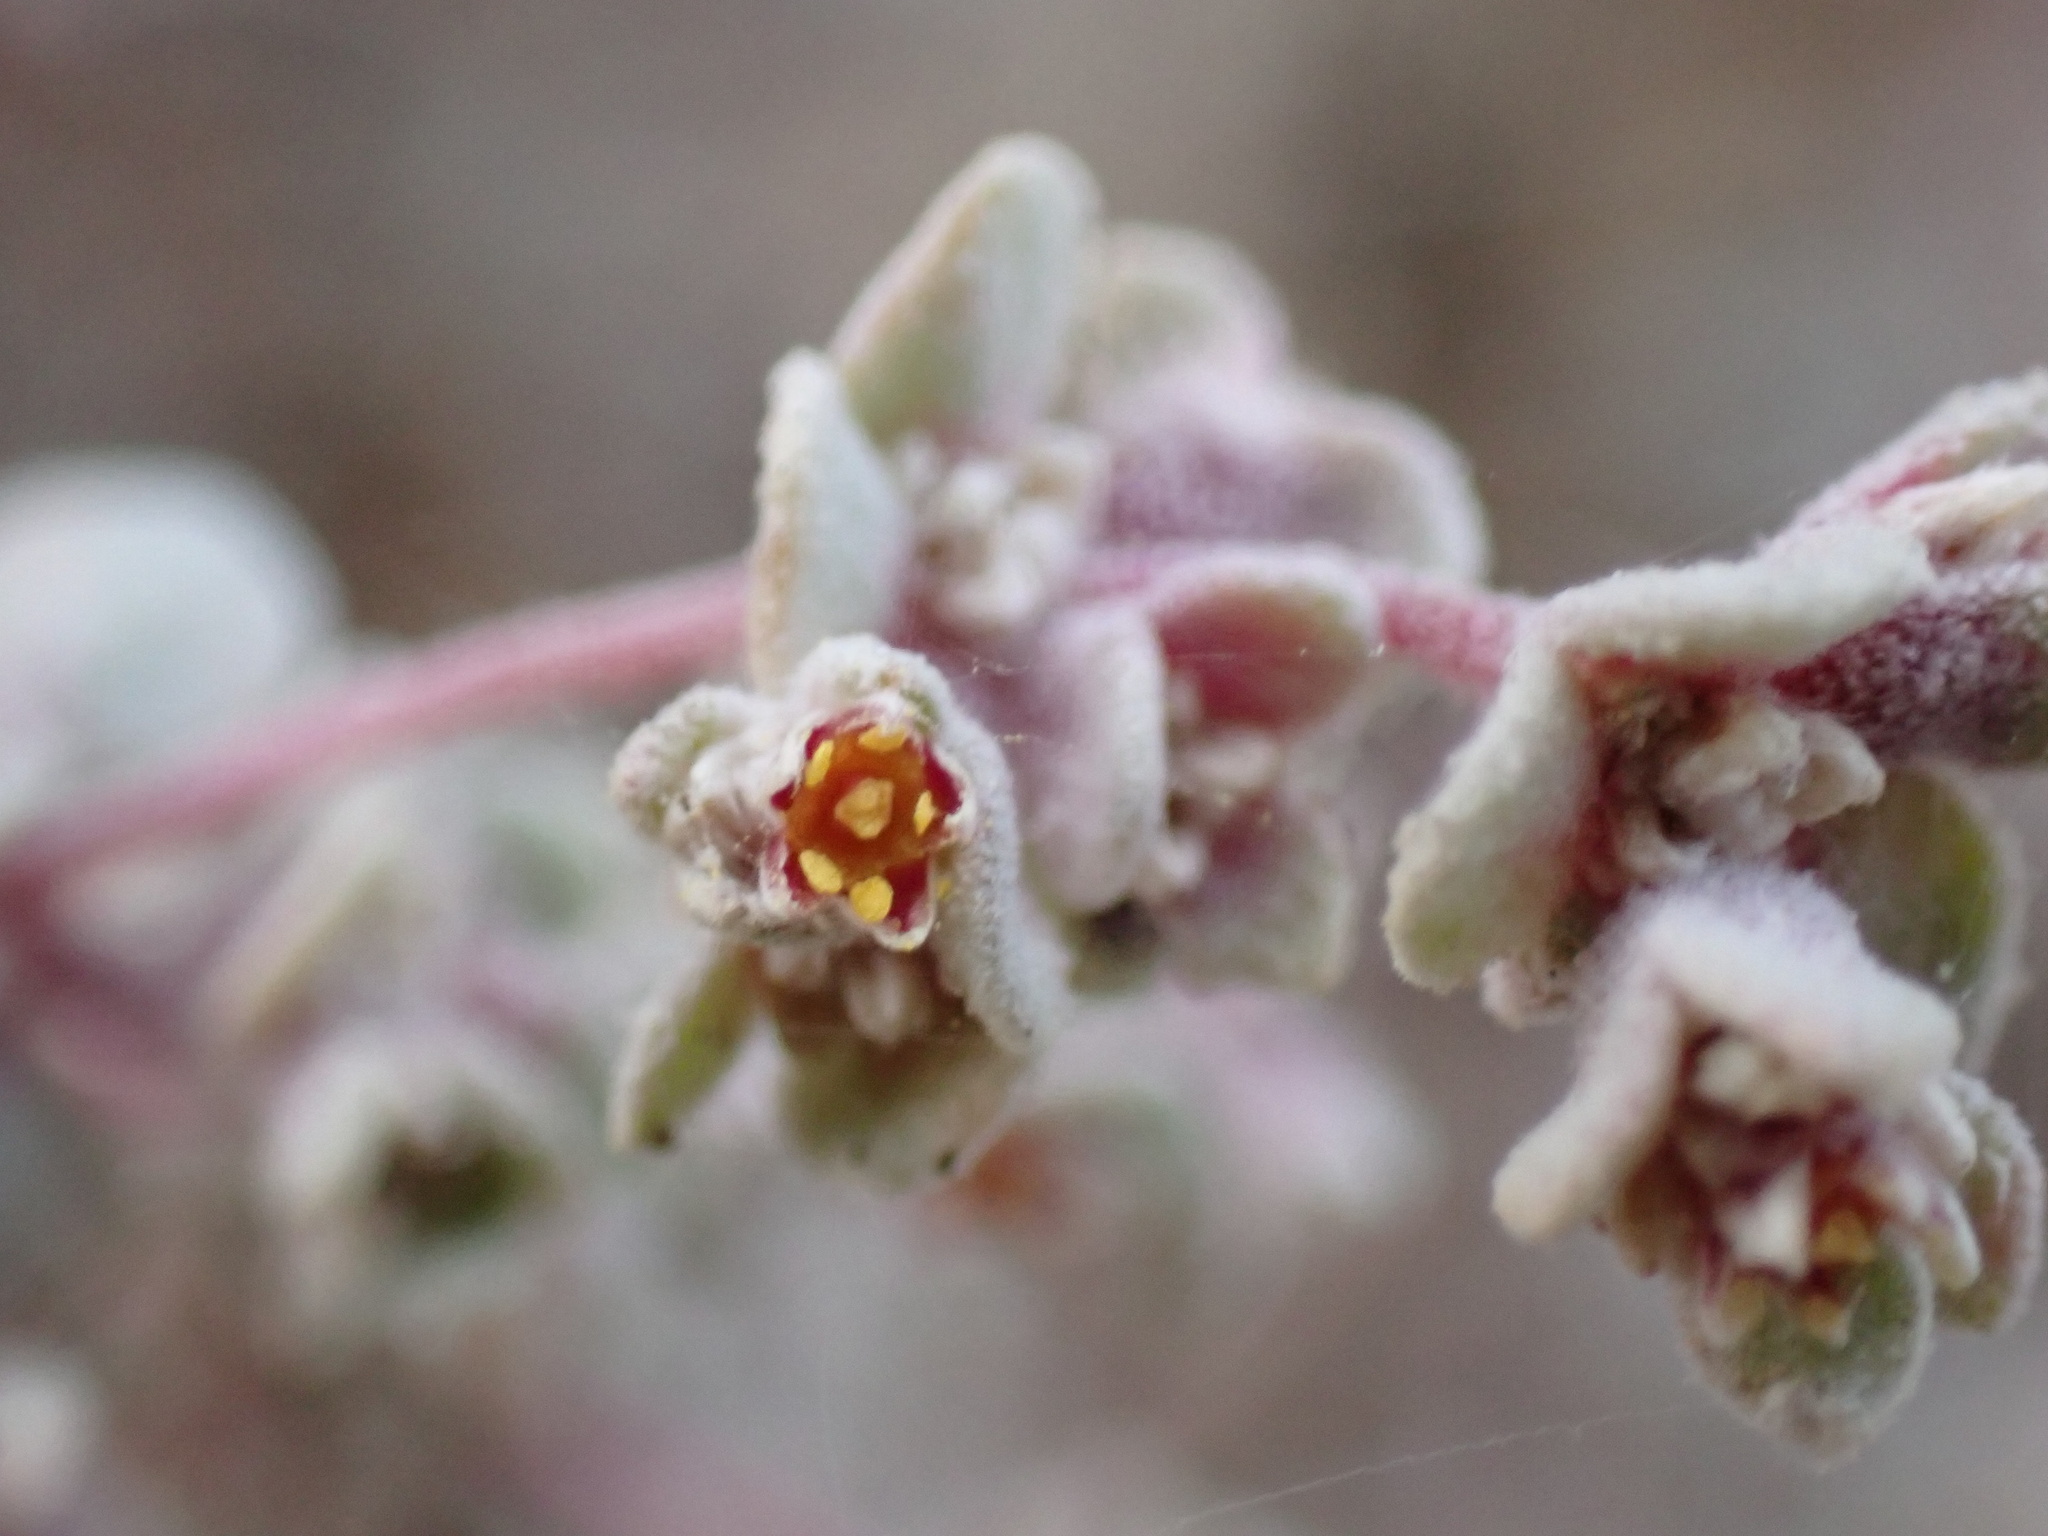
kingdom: Plantae
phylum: Tracheophyta
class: Magnoliopsida
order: Caryophyllales
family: Amaranthaceae
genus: Tidestromia
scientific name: Tidestromia suffruticosa
